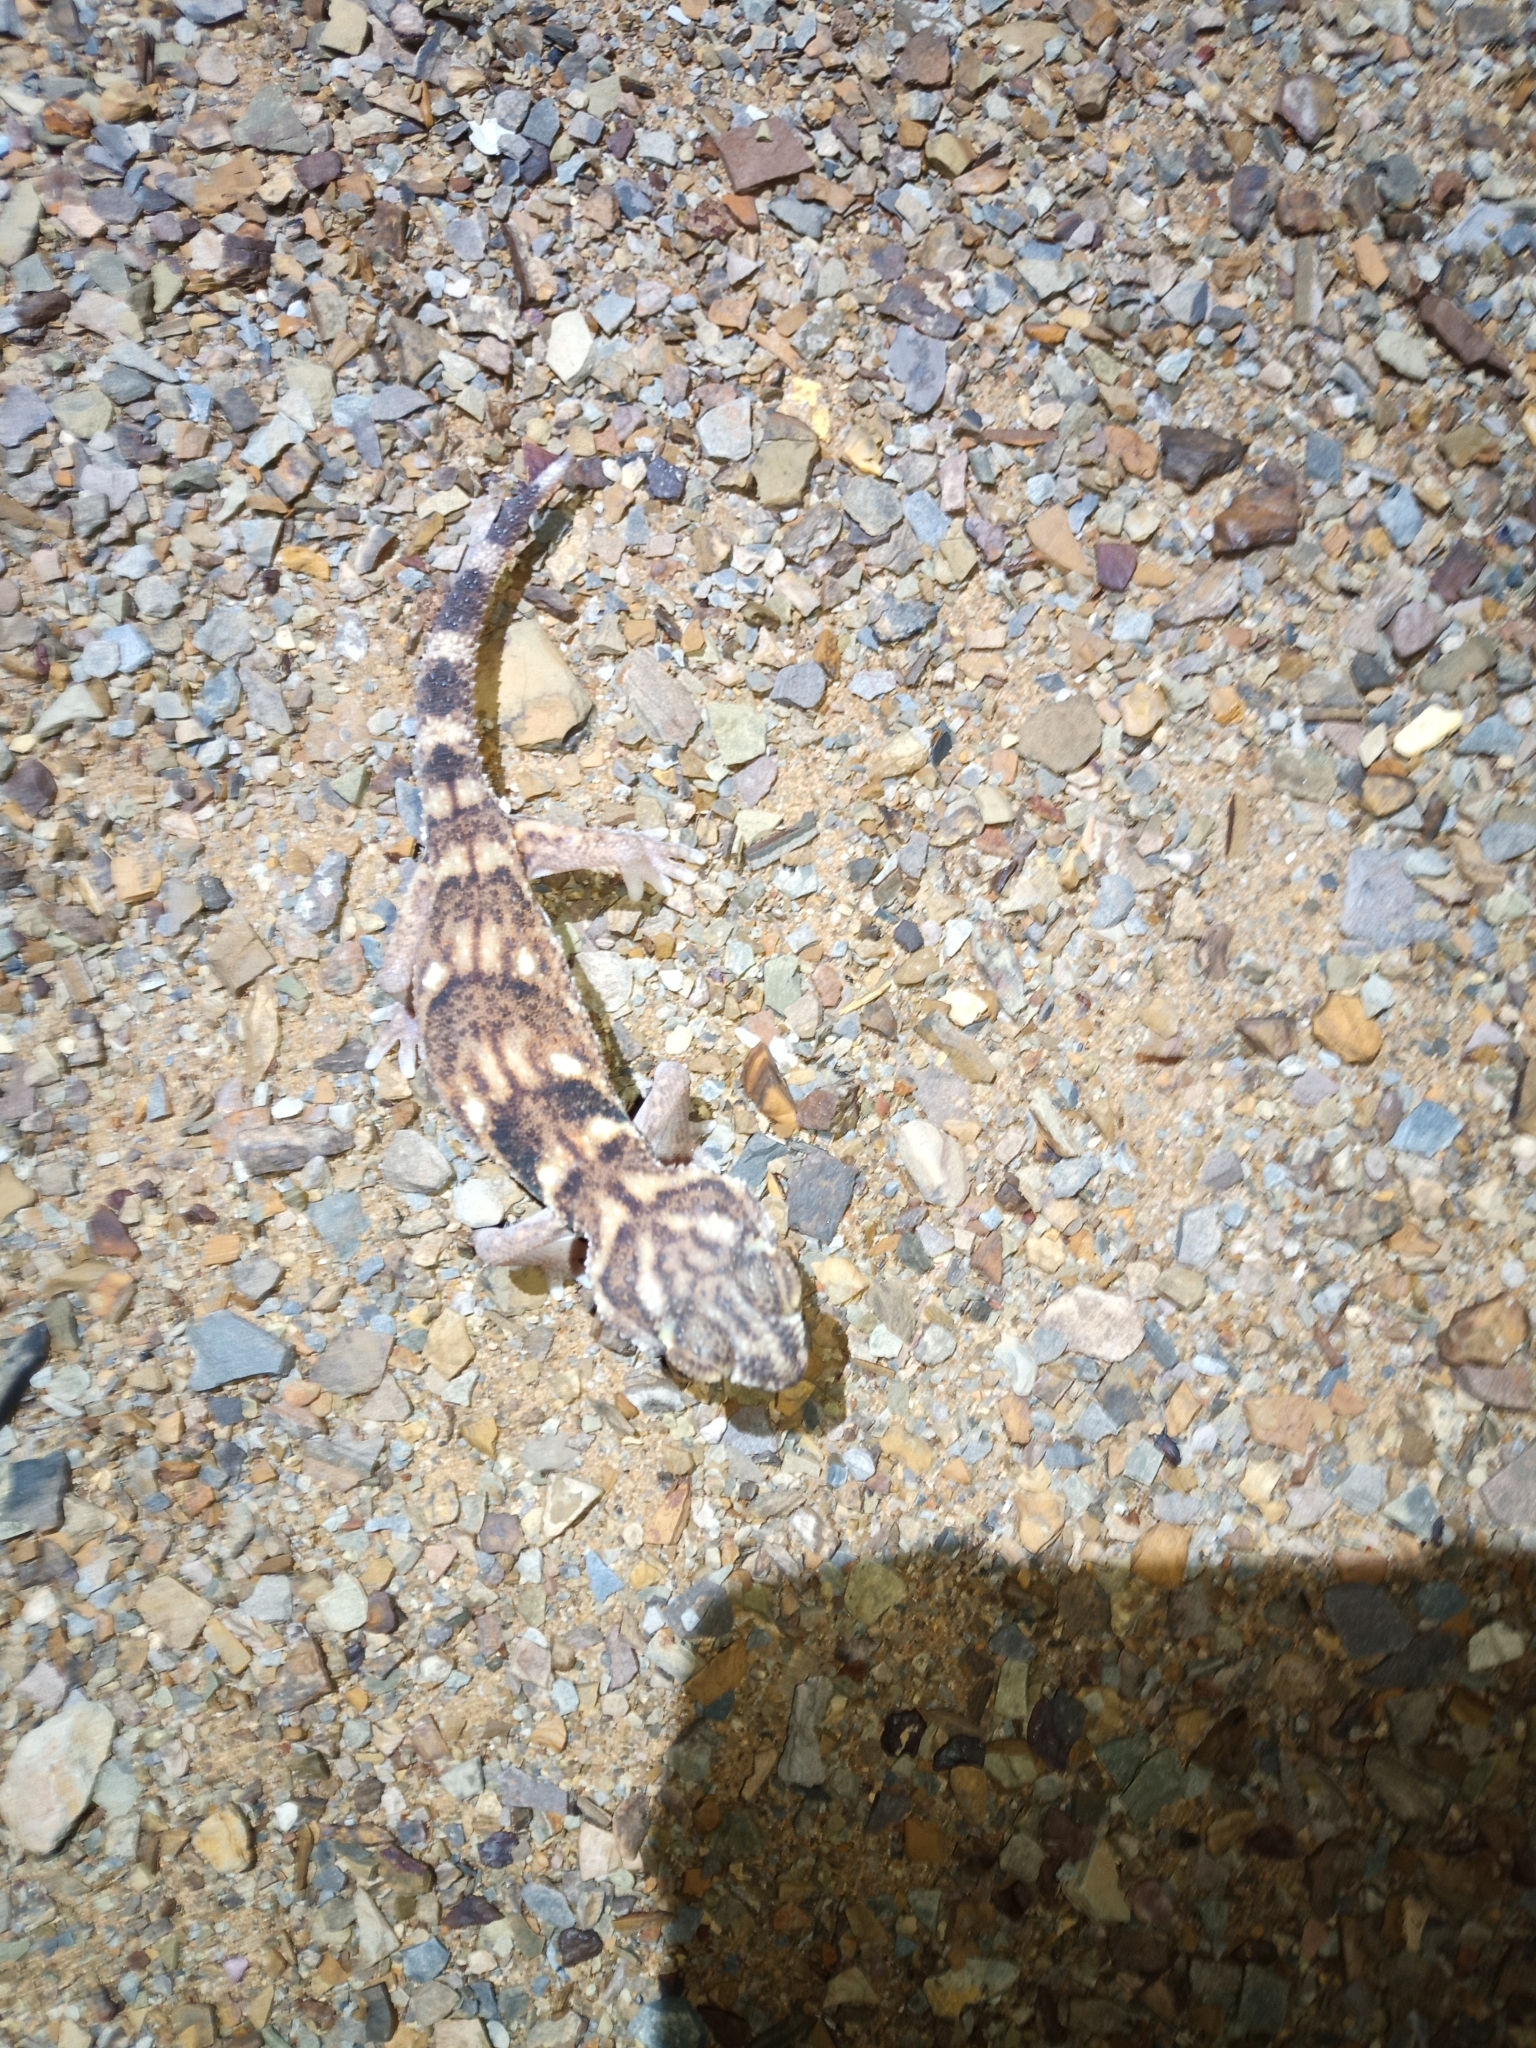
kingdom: Animalia
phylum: Chordata
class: Squamata
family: Gekkonidae
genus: Chondrodactylus
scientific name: Chondrodactylus angulifer
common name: Common giant ground gecko
